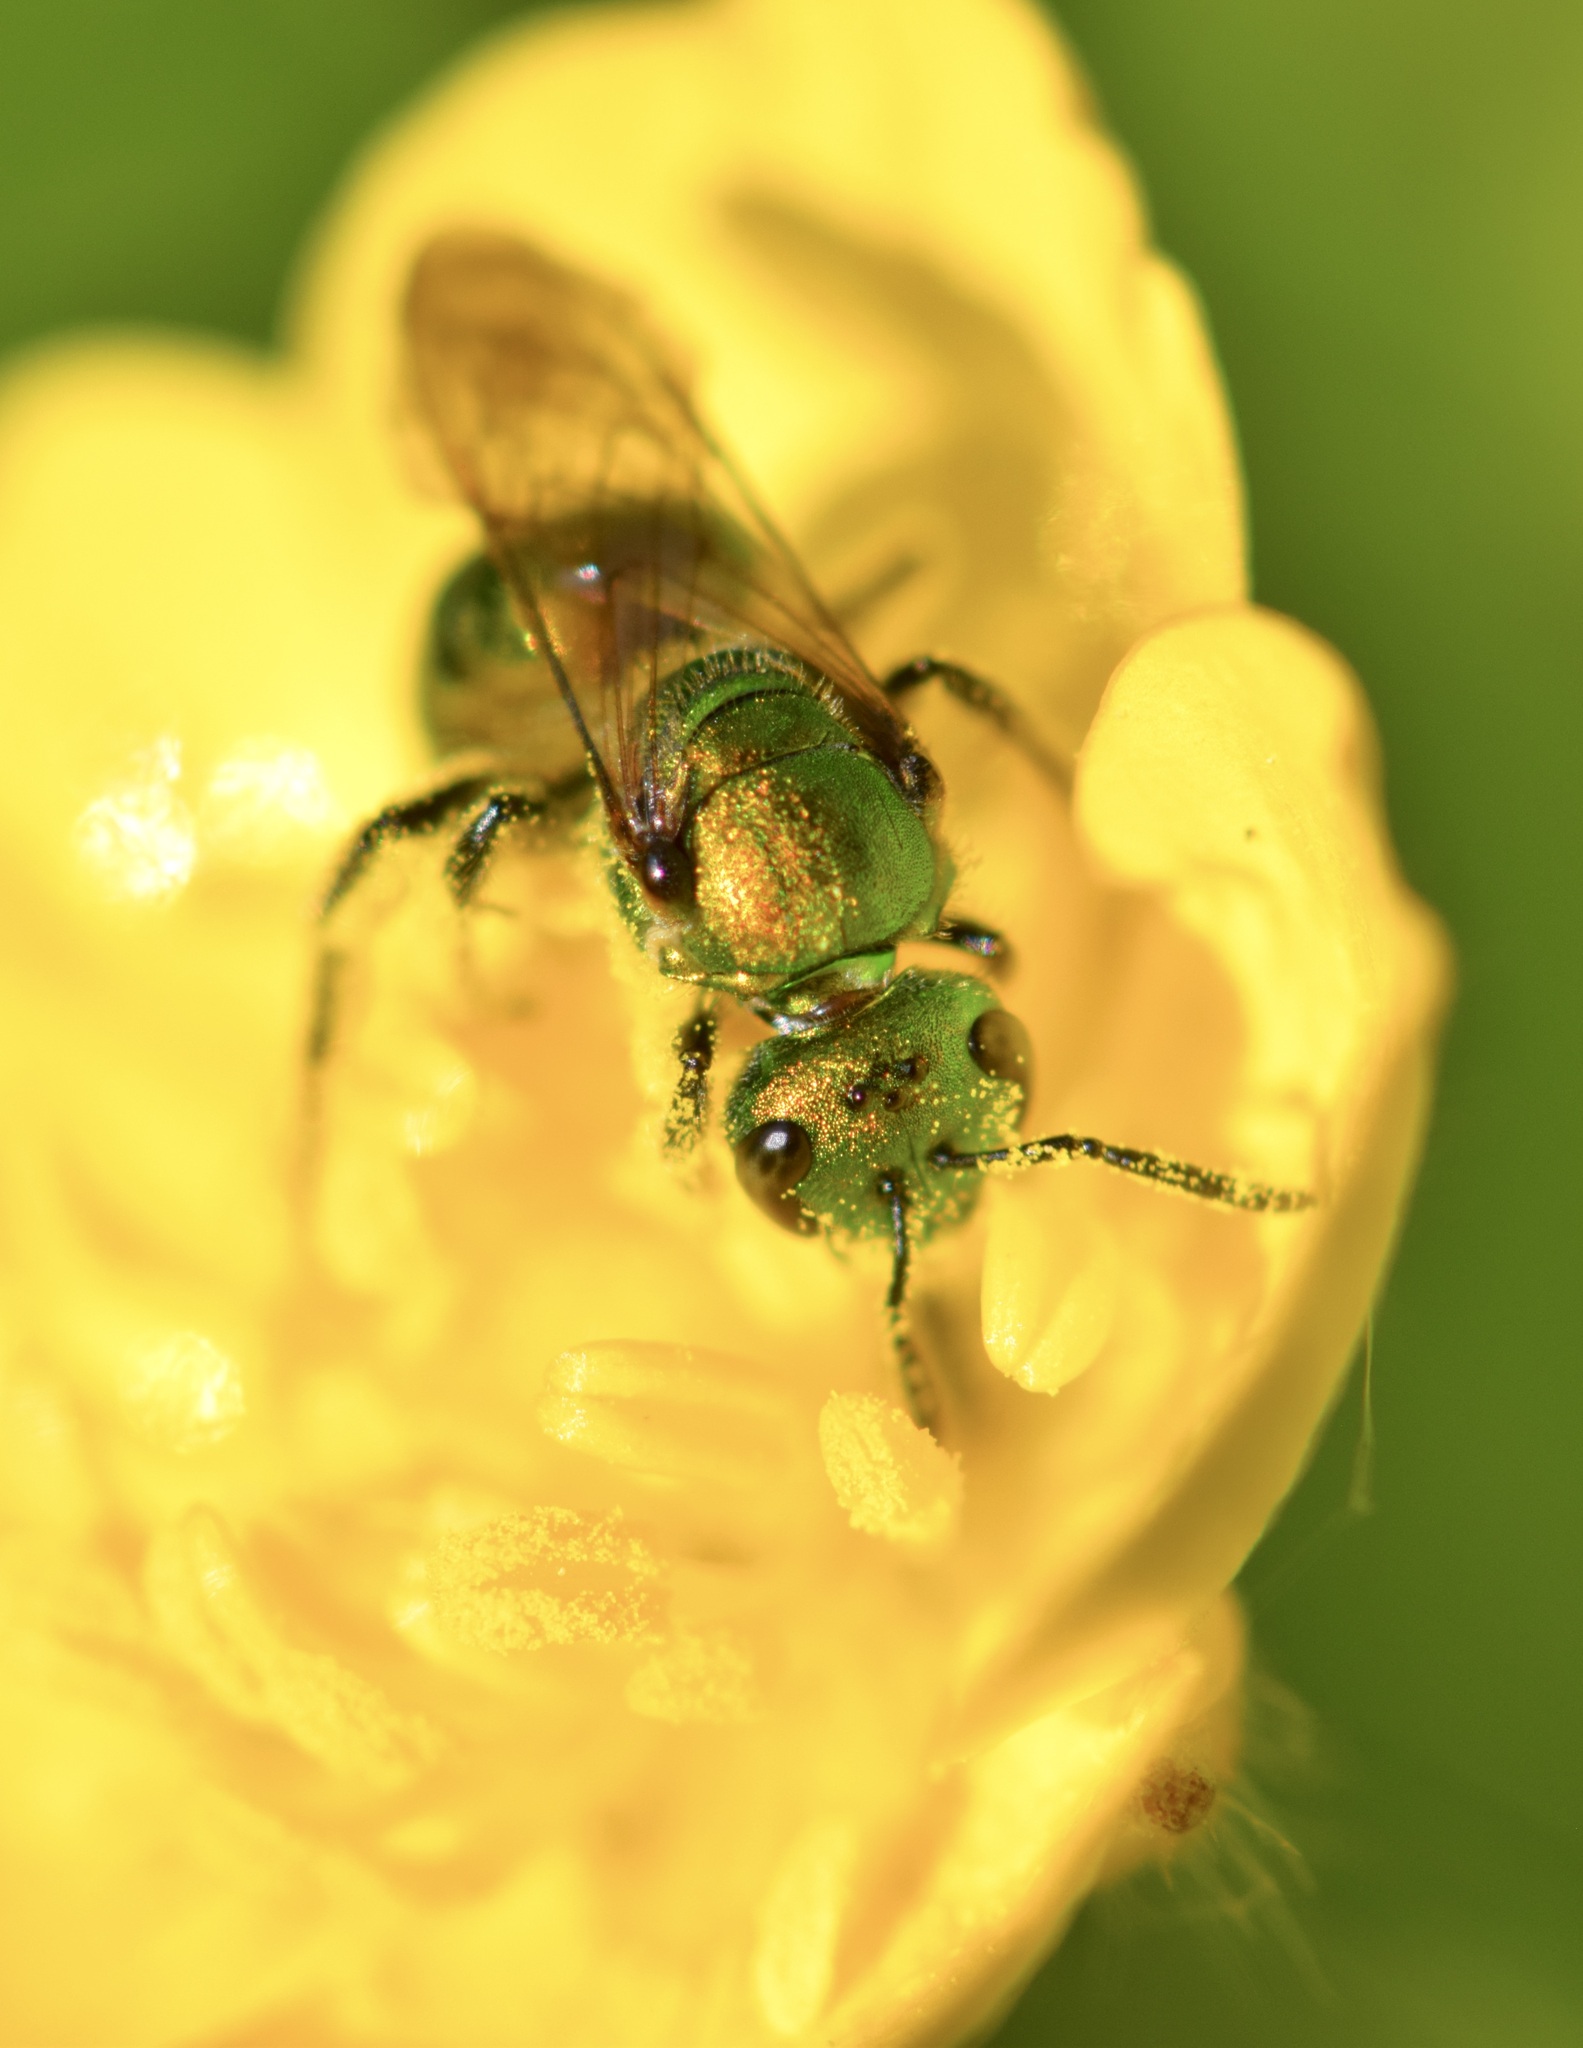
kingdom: Animalia
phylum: Arthropoda
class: Insecta
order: Hymenoptera
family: Halictidae
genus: Augochlora
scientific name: Augochlora pura
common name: Pure green sweat bee
